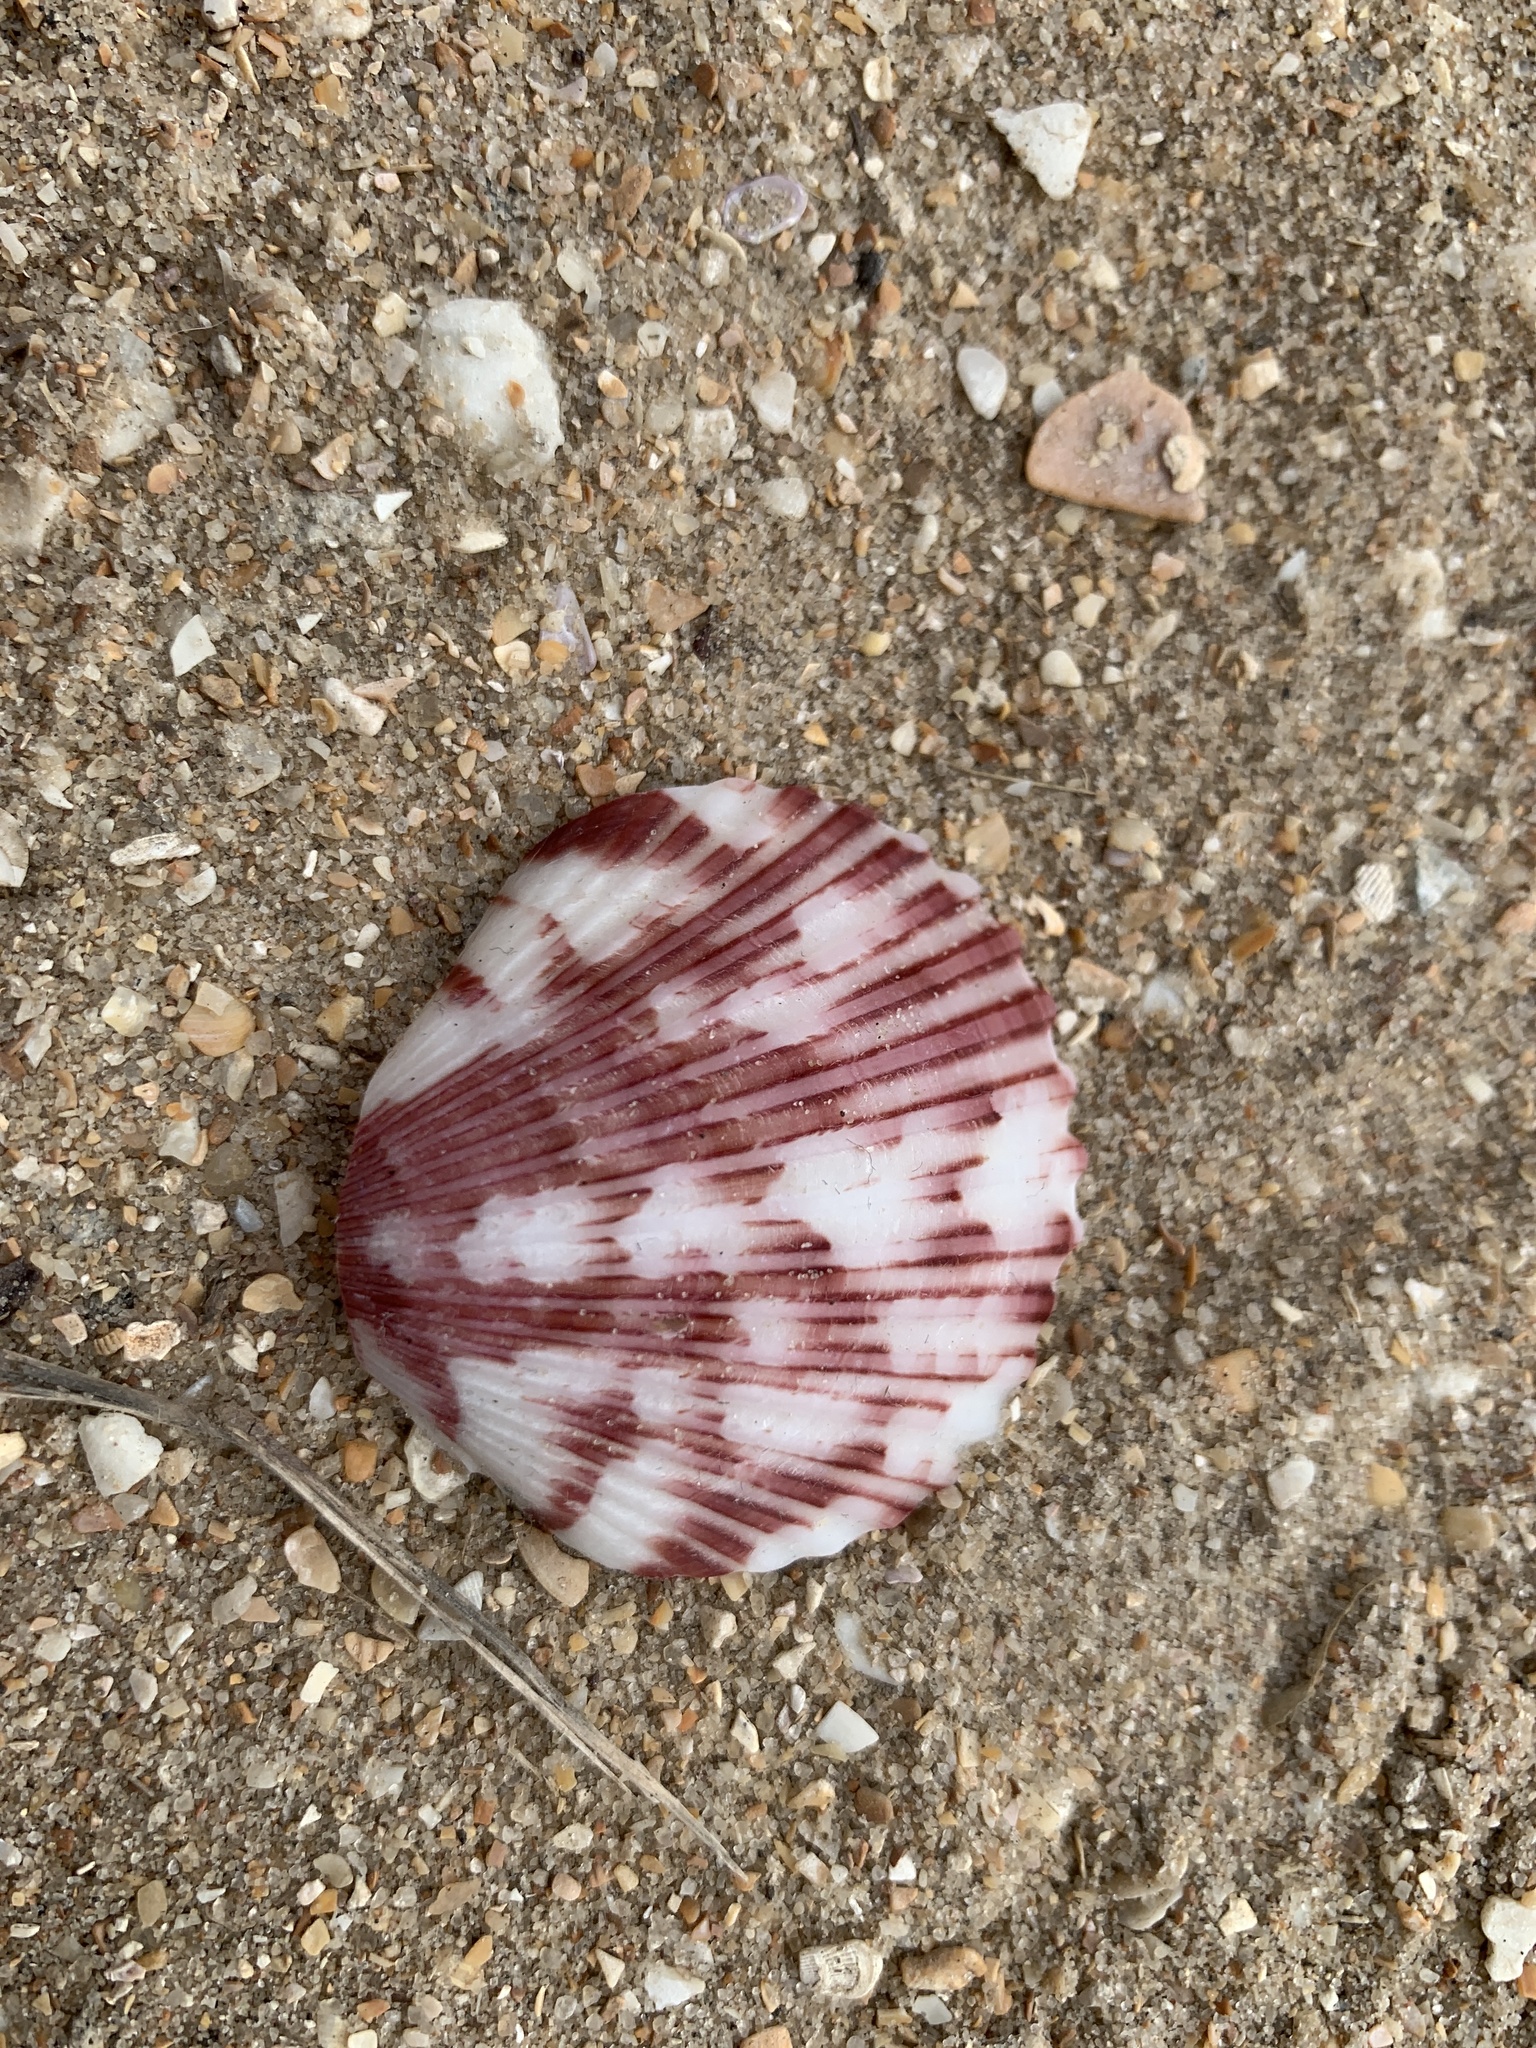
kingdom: Animalia
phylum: Mollusca
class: Bivalvia
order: Pectinida
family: Pectinidae
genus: Argopecten
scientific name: Argopecten gibbus
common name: Atlantic calico scallop
